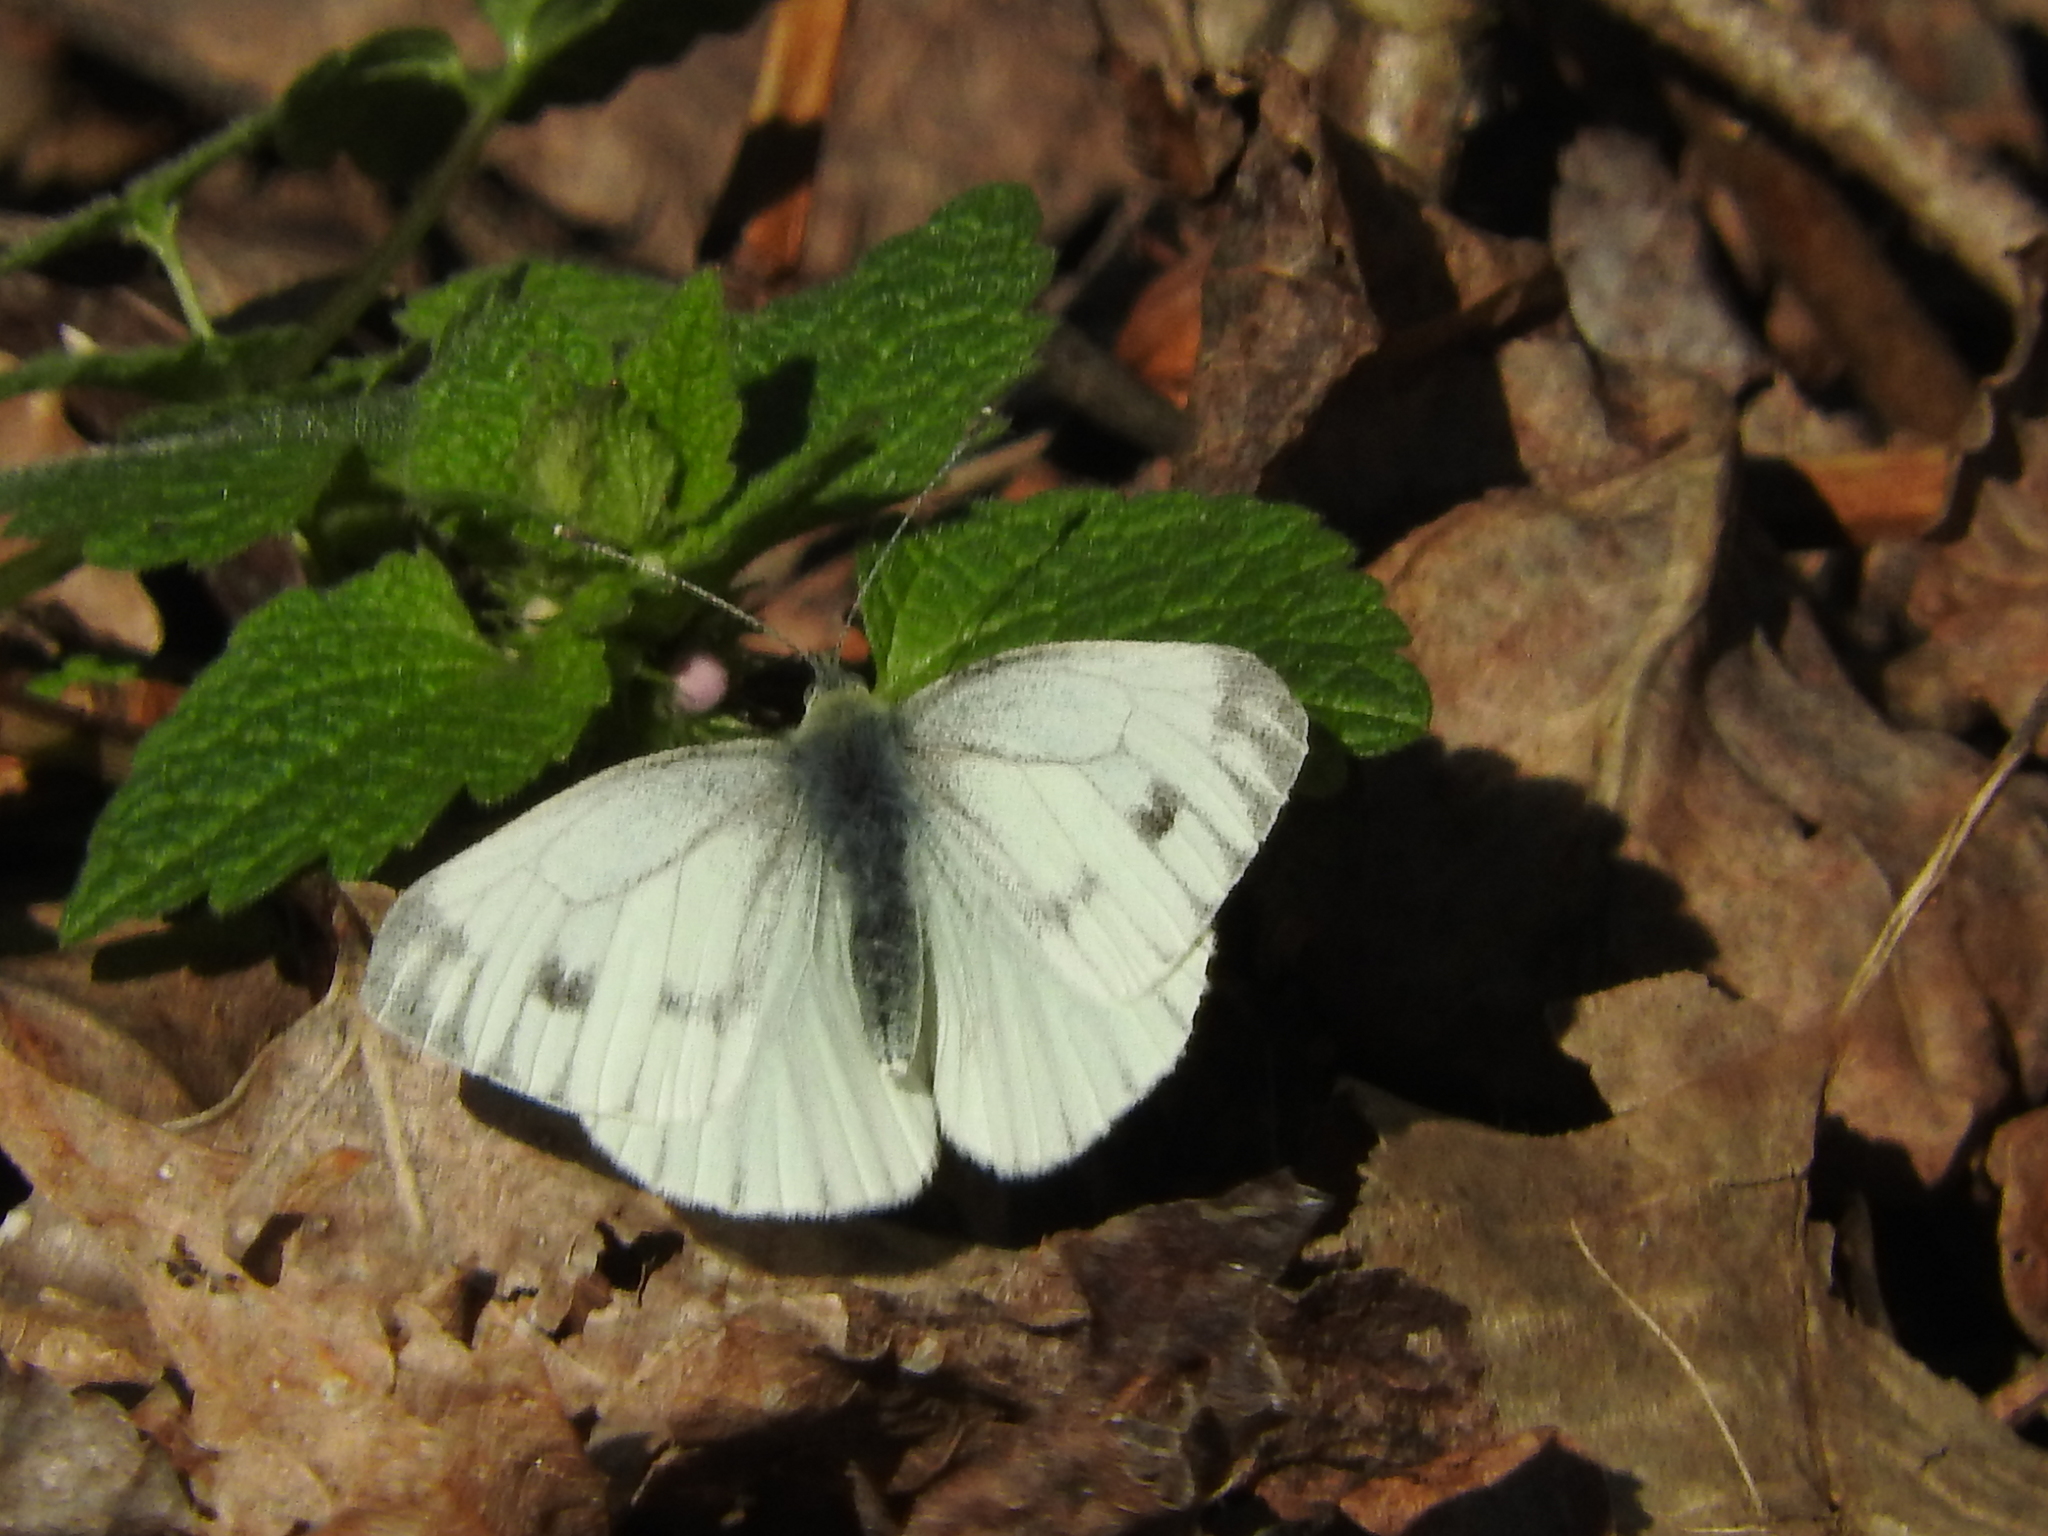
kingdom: Animalia
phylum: Arthropoda
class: Insecta
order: Lepidoptera
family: Pieridae
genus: Pieris
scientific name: Pieris napi
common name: Green-veined white
